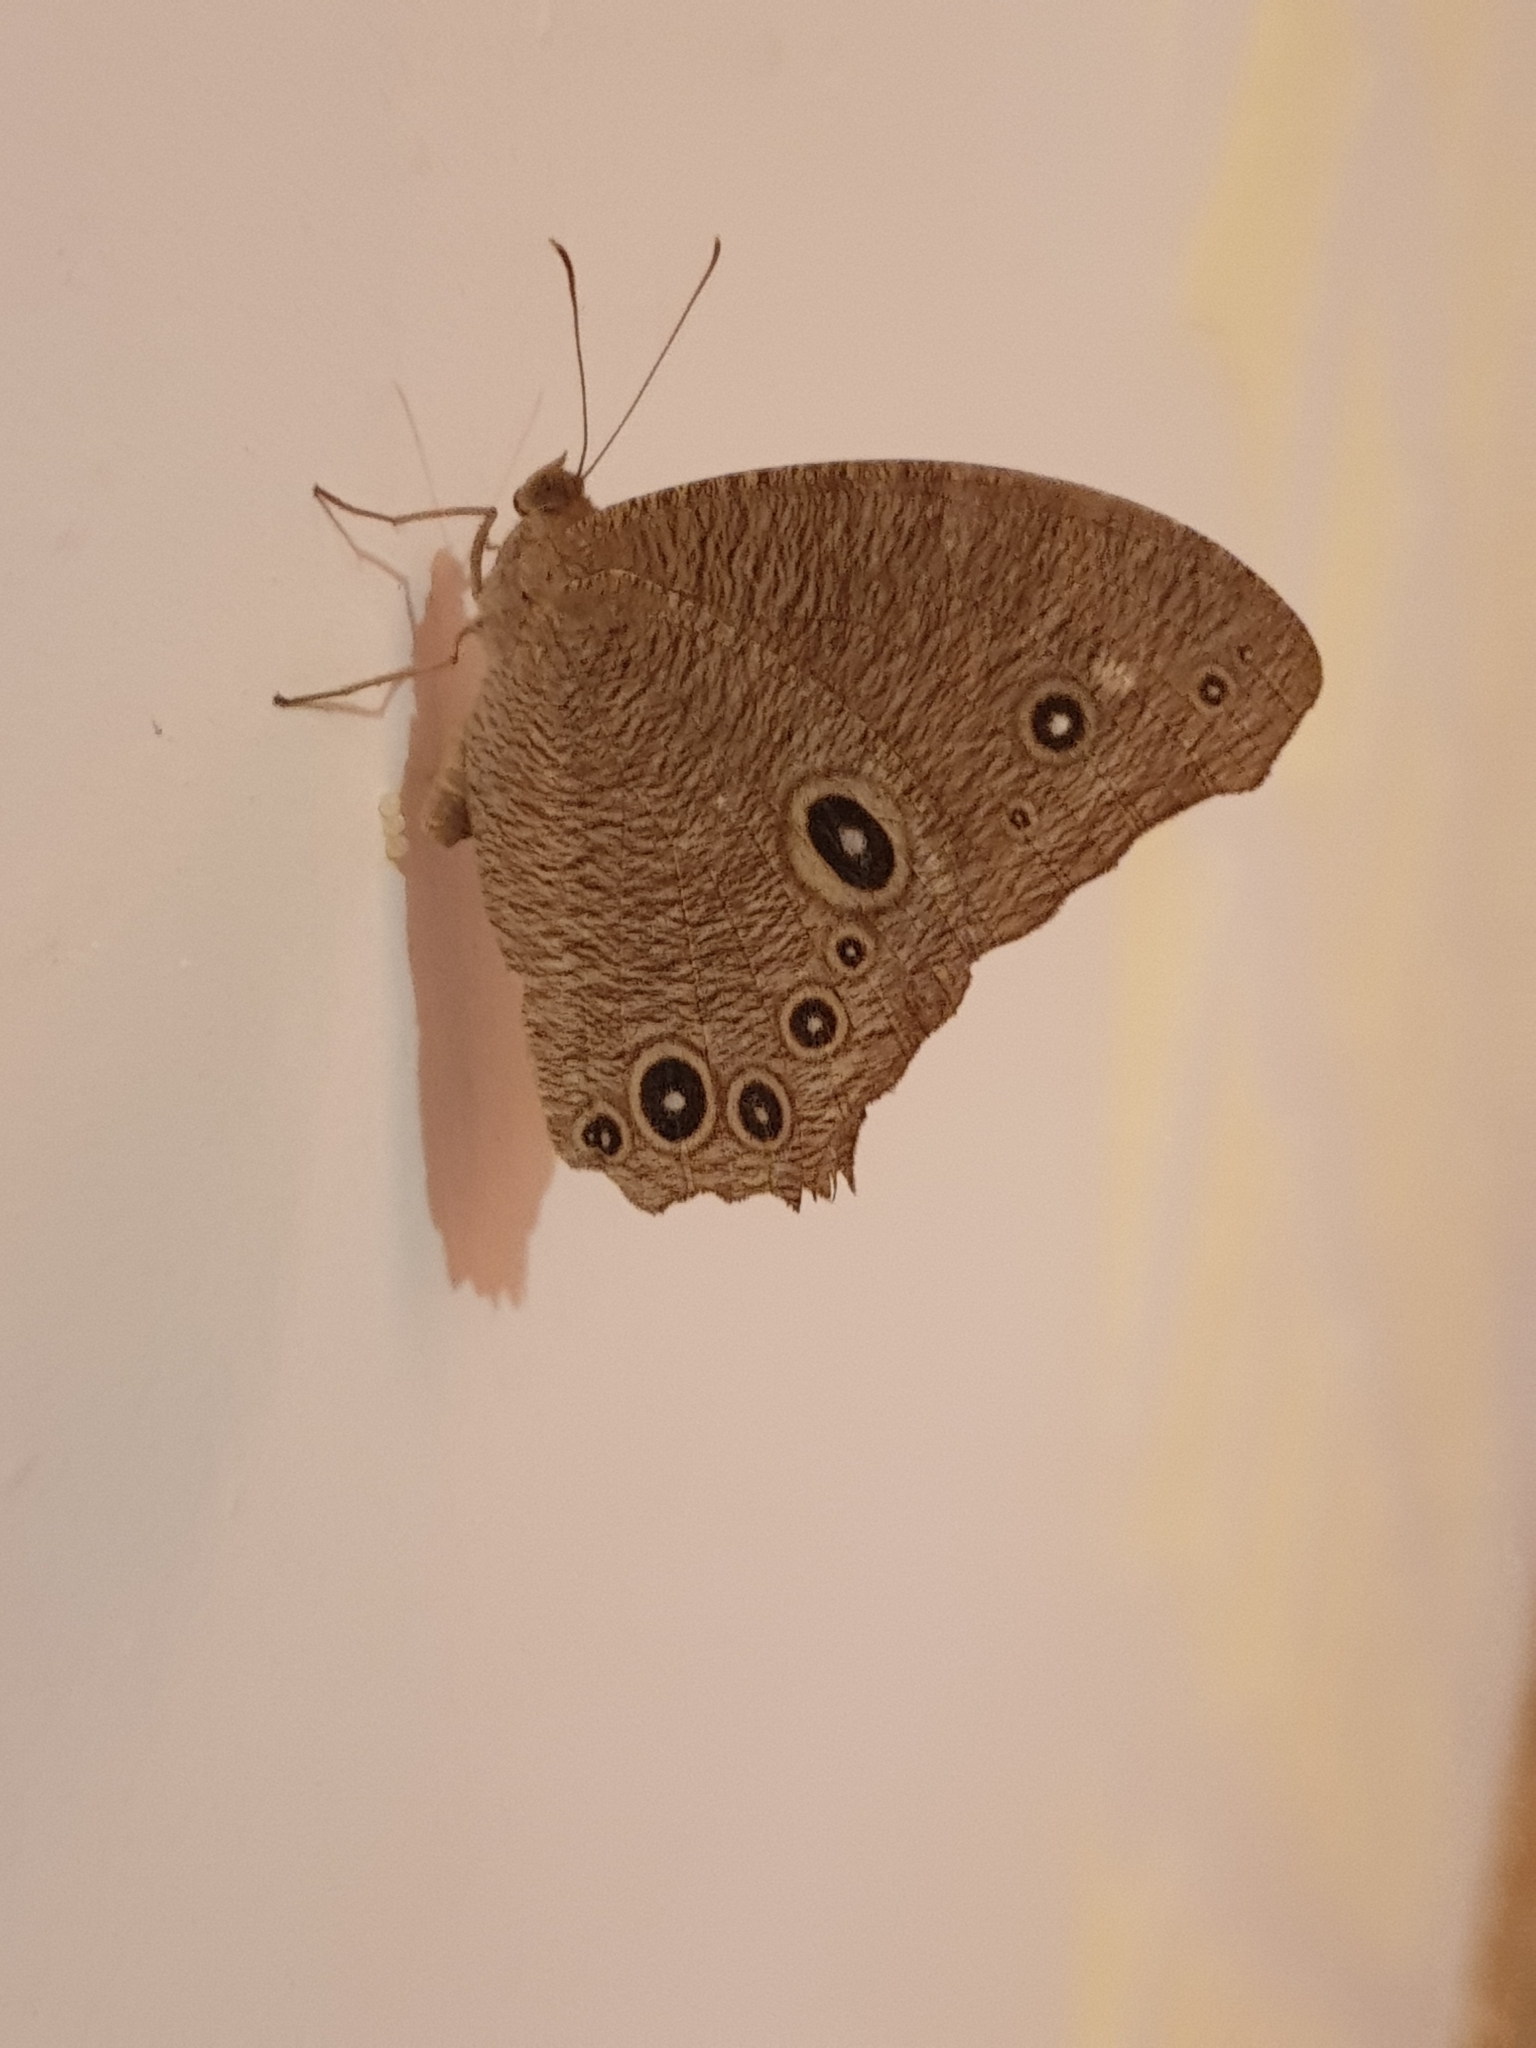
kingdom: Animalia
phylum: Arthropoda
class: Insecta
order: Lepidoptera
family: Nymphalidae
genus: Melanitis
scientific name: Melanitis leda
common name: Twilight brown
